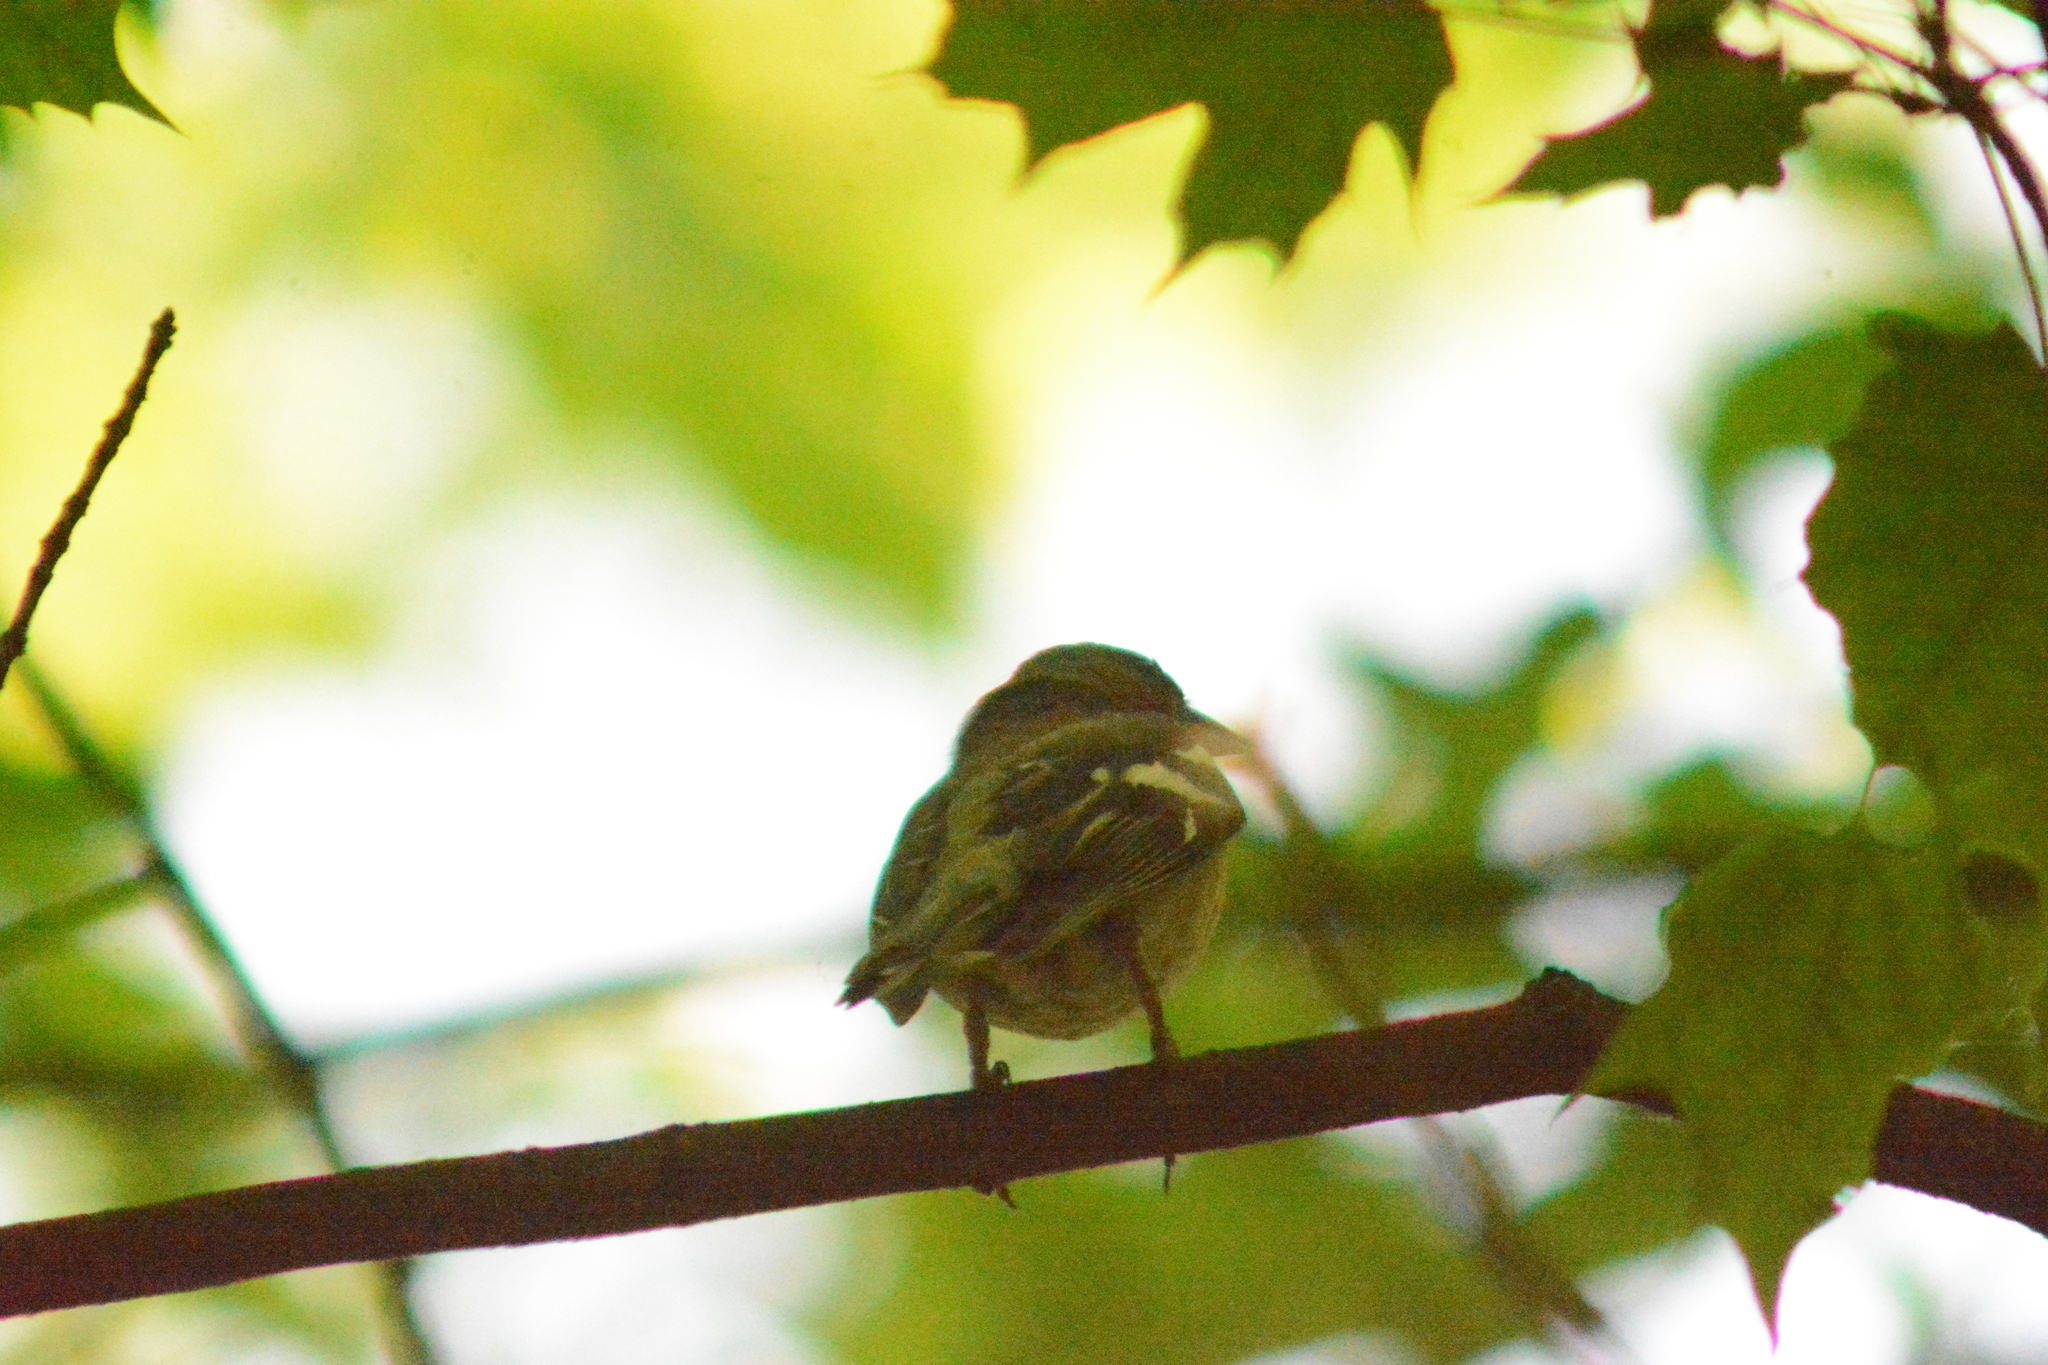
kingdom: Animalia
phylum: Chordata
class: Aves
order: Passeriformes
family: Fringillidae
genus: Fringilla
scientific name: Fringilla coelebs
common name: Common chaffinch
